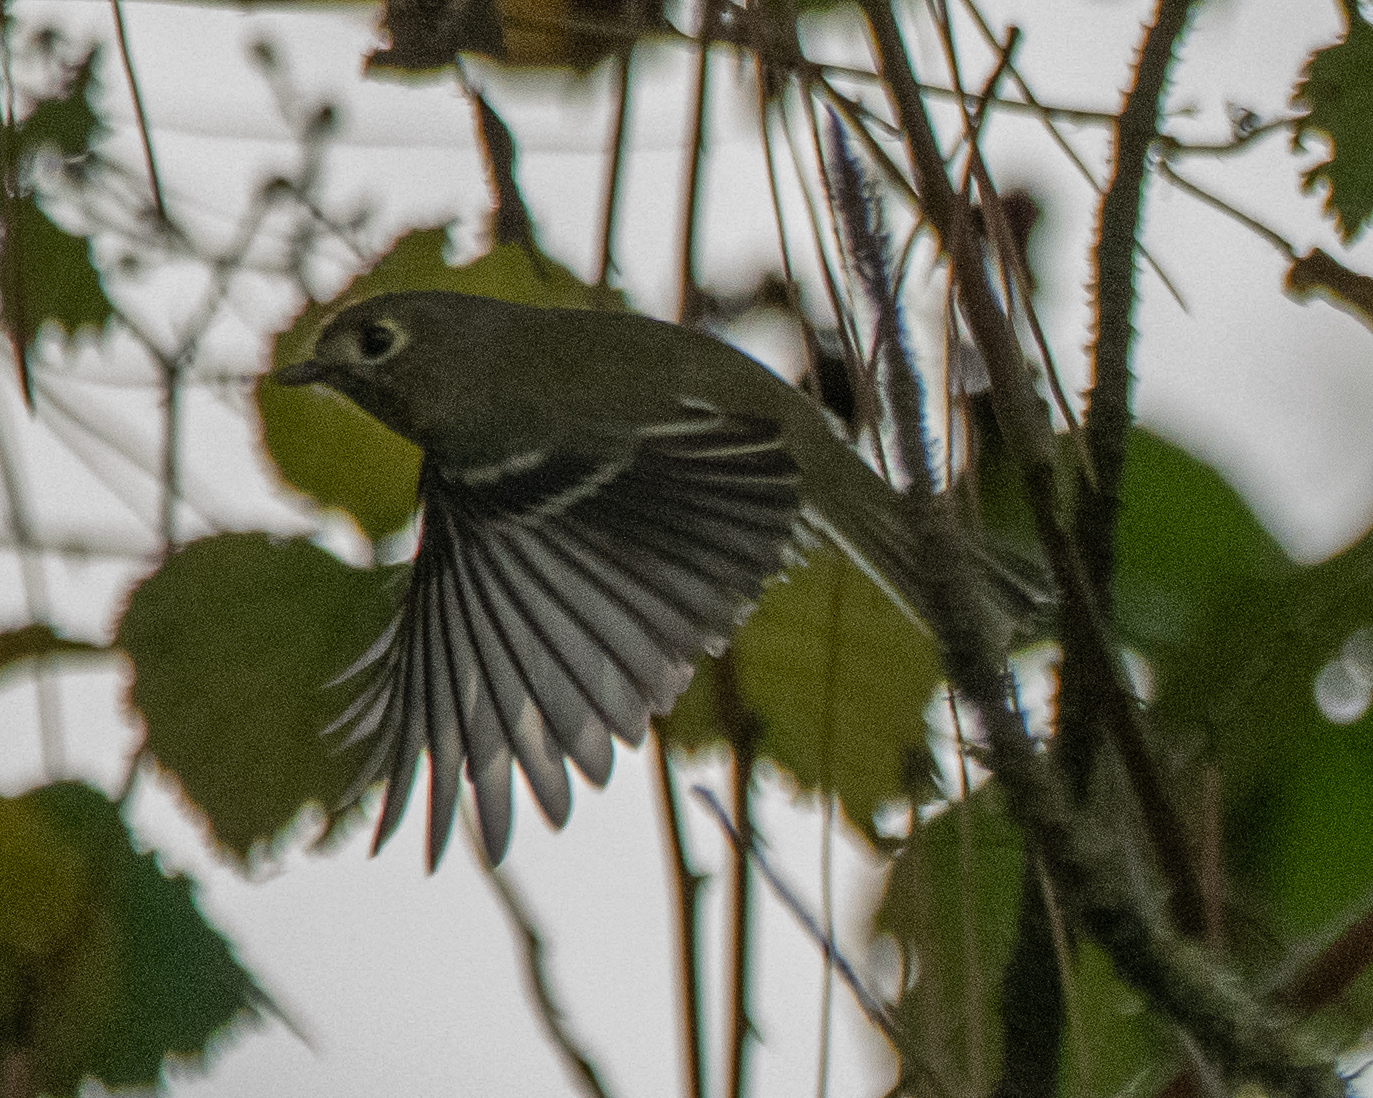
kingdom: Animalia
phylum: Chordata
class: Aves
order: Passeriformes
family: Vireonidae
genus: Vireo
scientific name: Vireo huttoni
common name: Hutton's vireo
